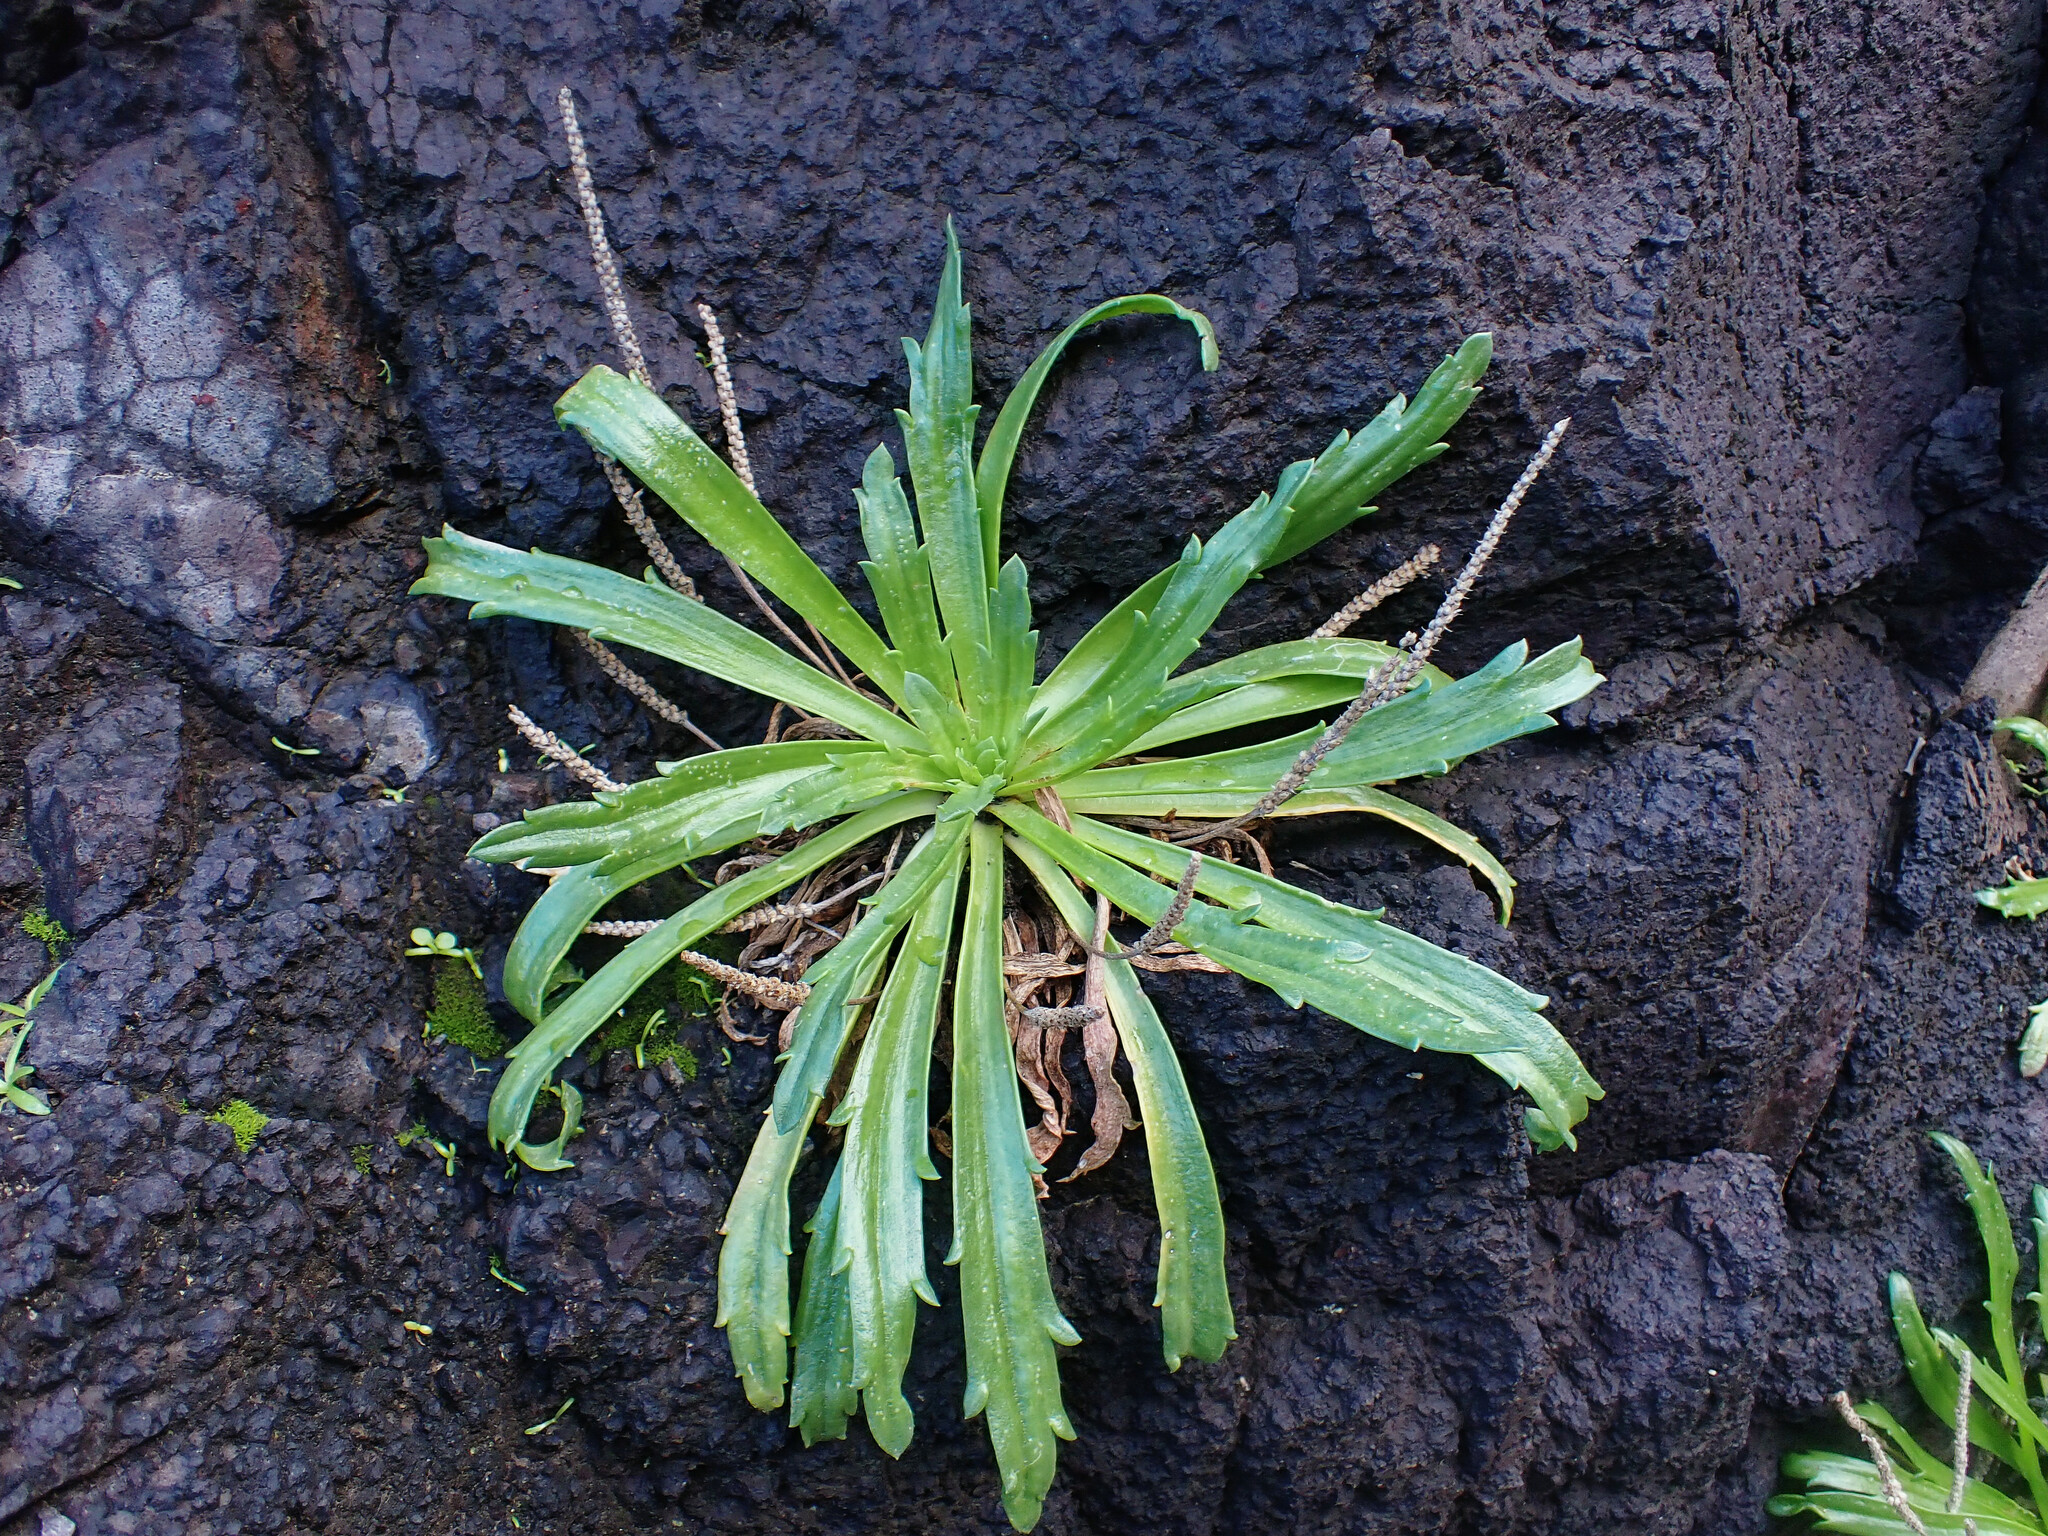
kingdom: Plantae
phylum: Tracheophyta
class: Magnoliopsida
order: Lamiales
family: Plantaginaceae
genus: Plantago
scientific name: Plantago coronopus
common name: Buck's-horn plantain
